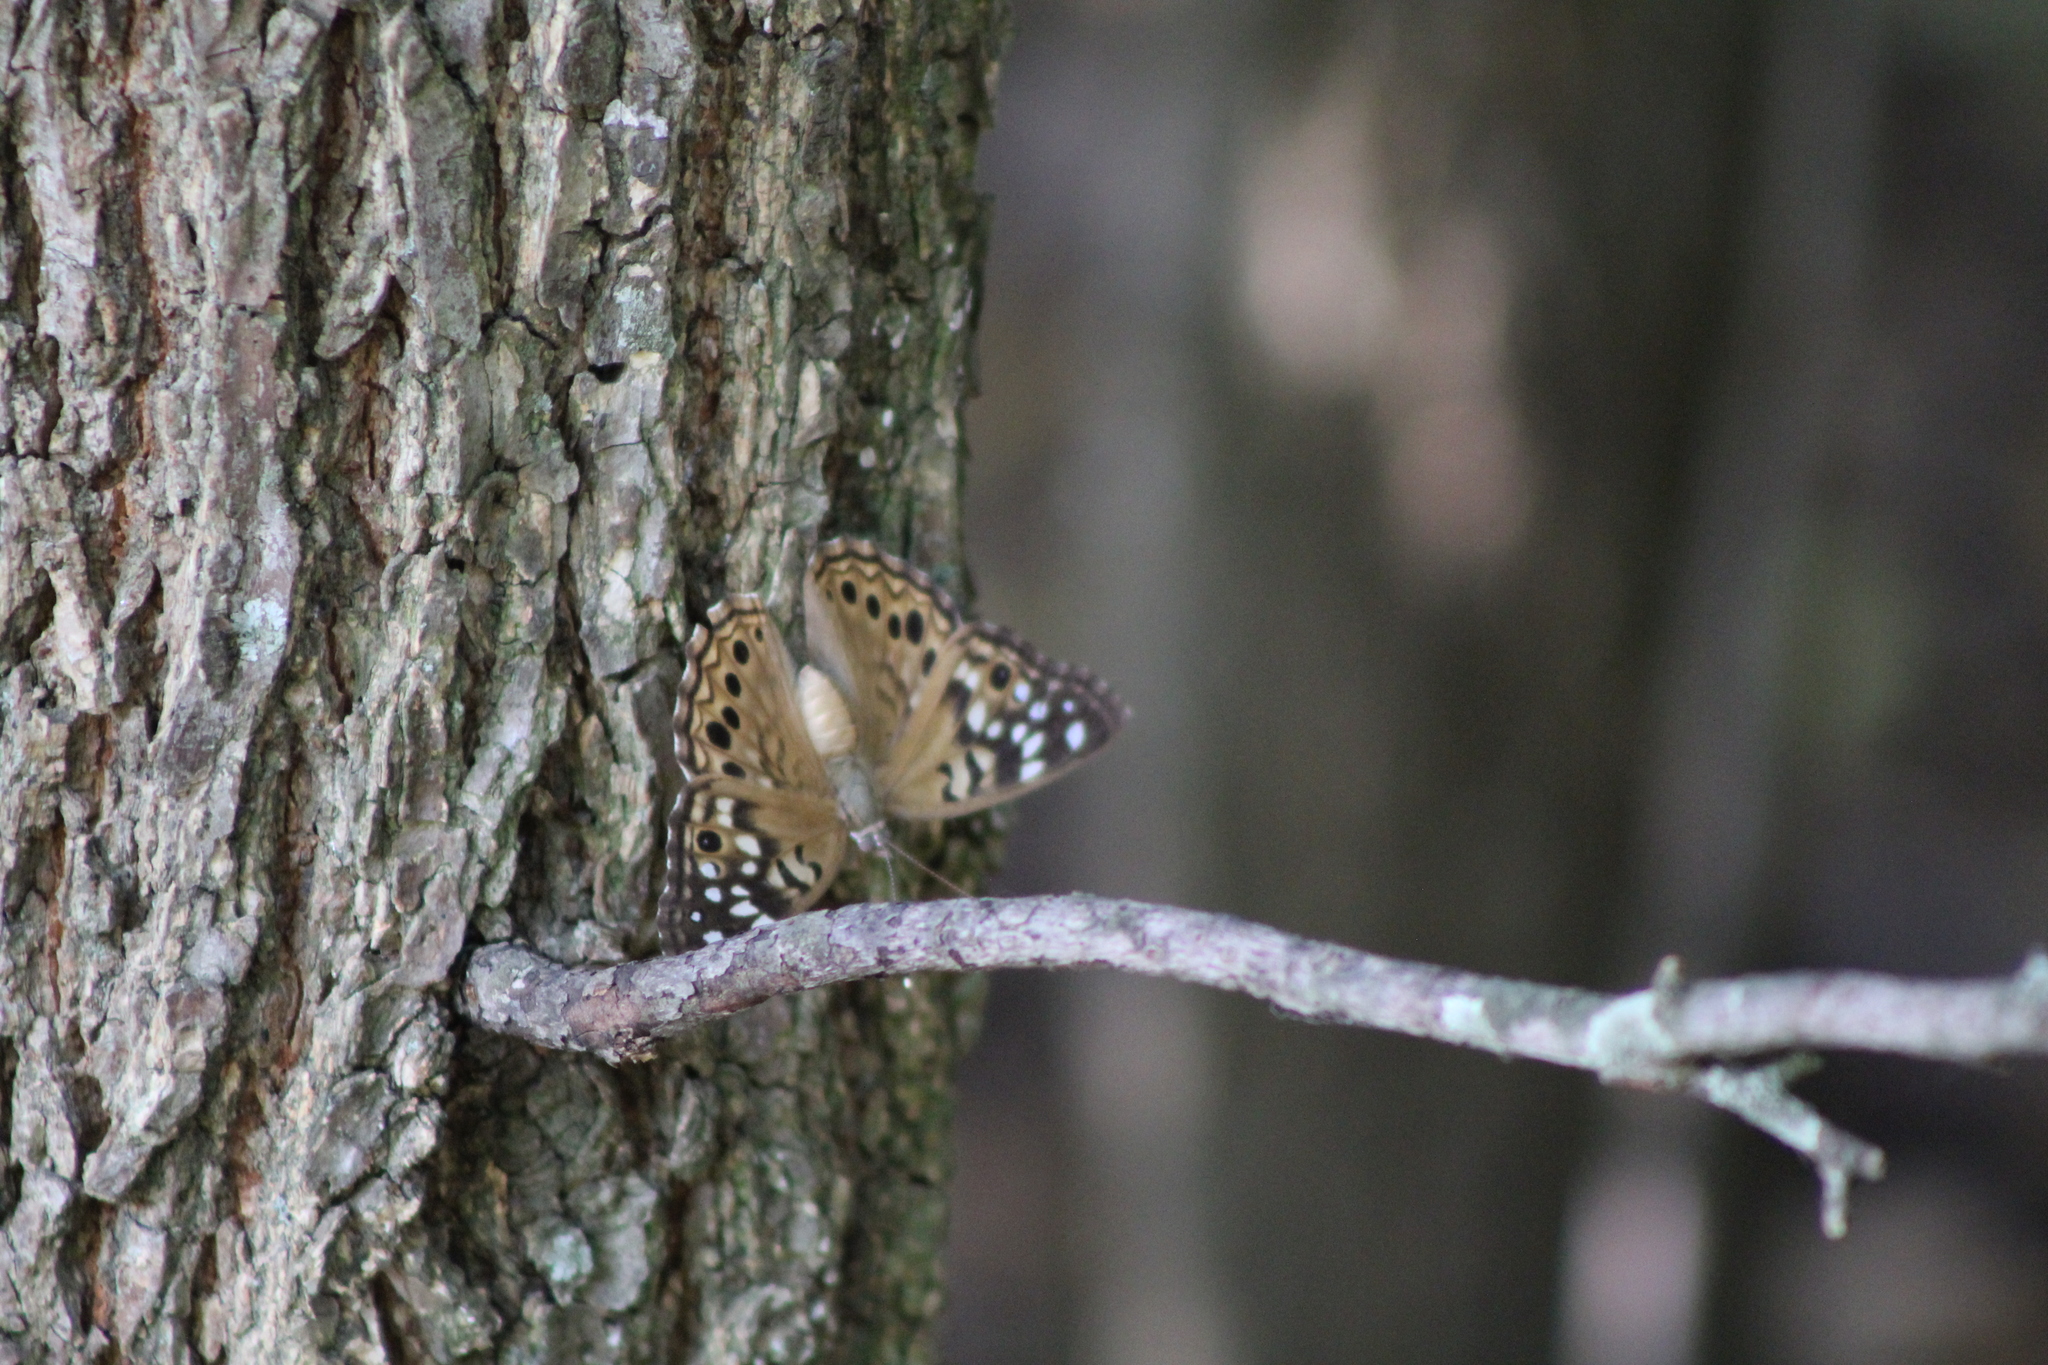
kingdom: Animalia
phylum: Arthropoda
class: Insecta
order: Lepidoptera
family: Nymphalidae
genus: Asterocampa
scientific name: Asterocampa celtis
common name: Hackberry emperor
